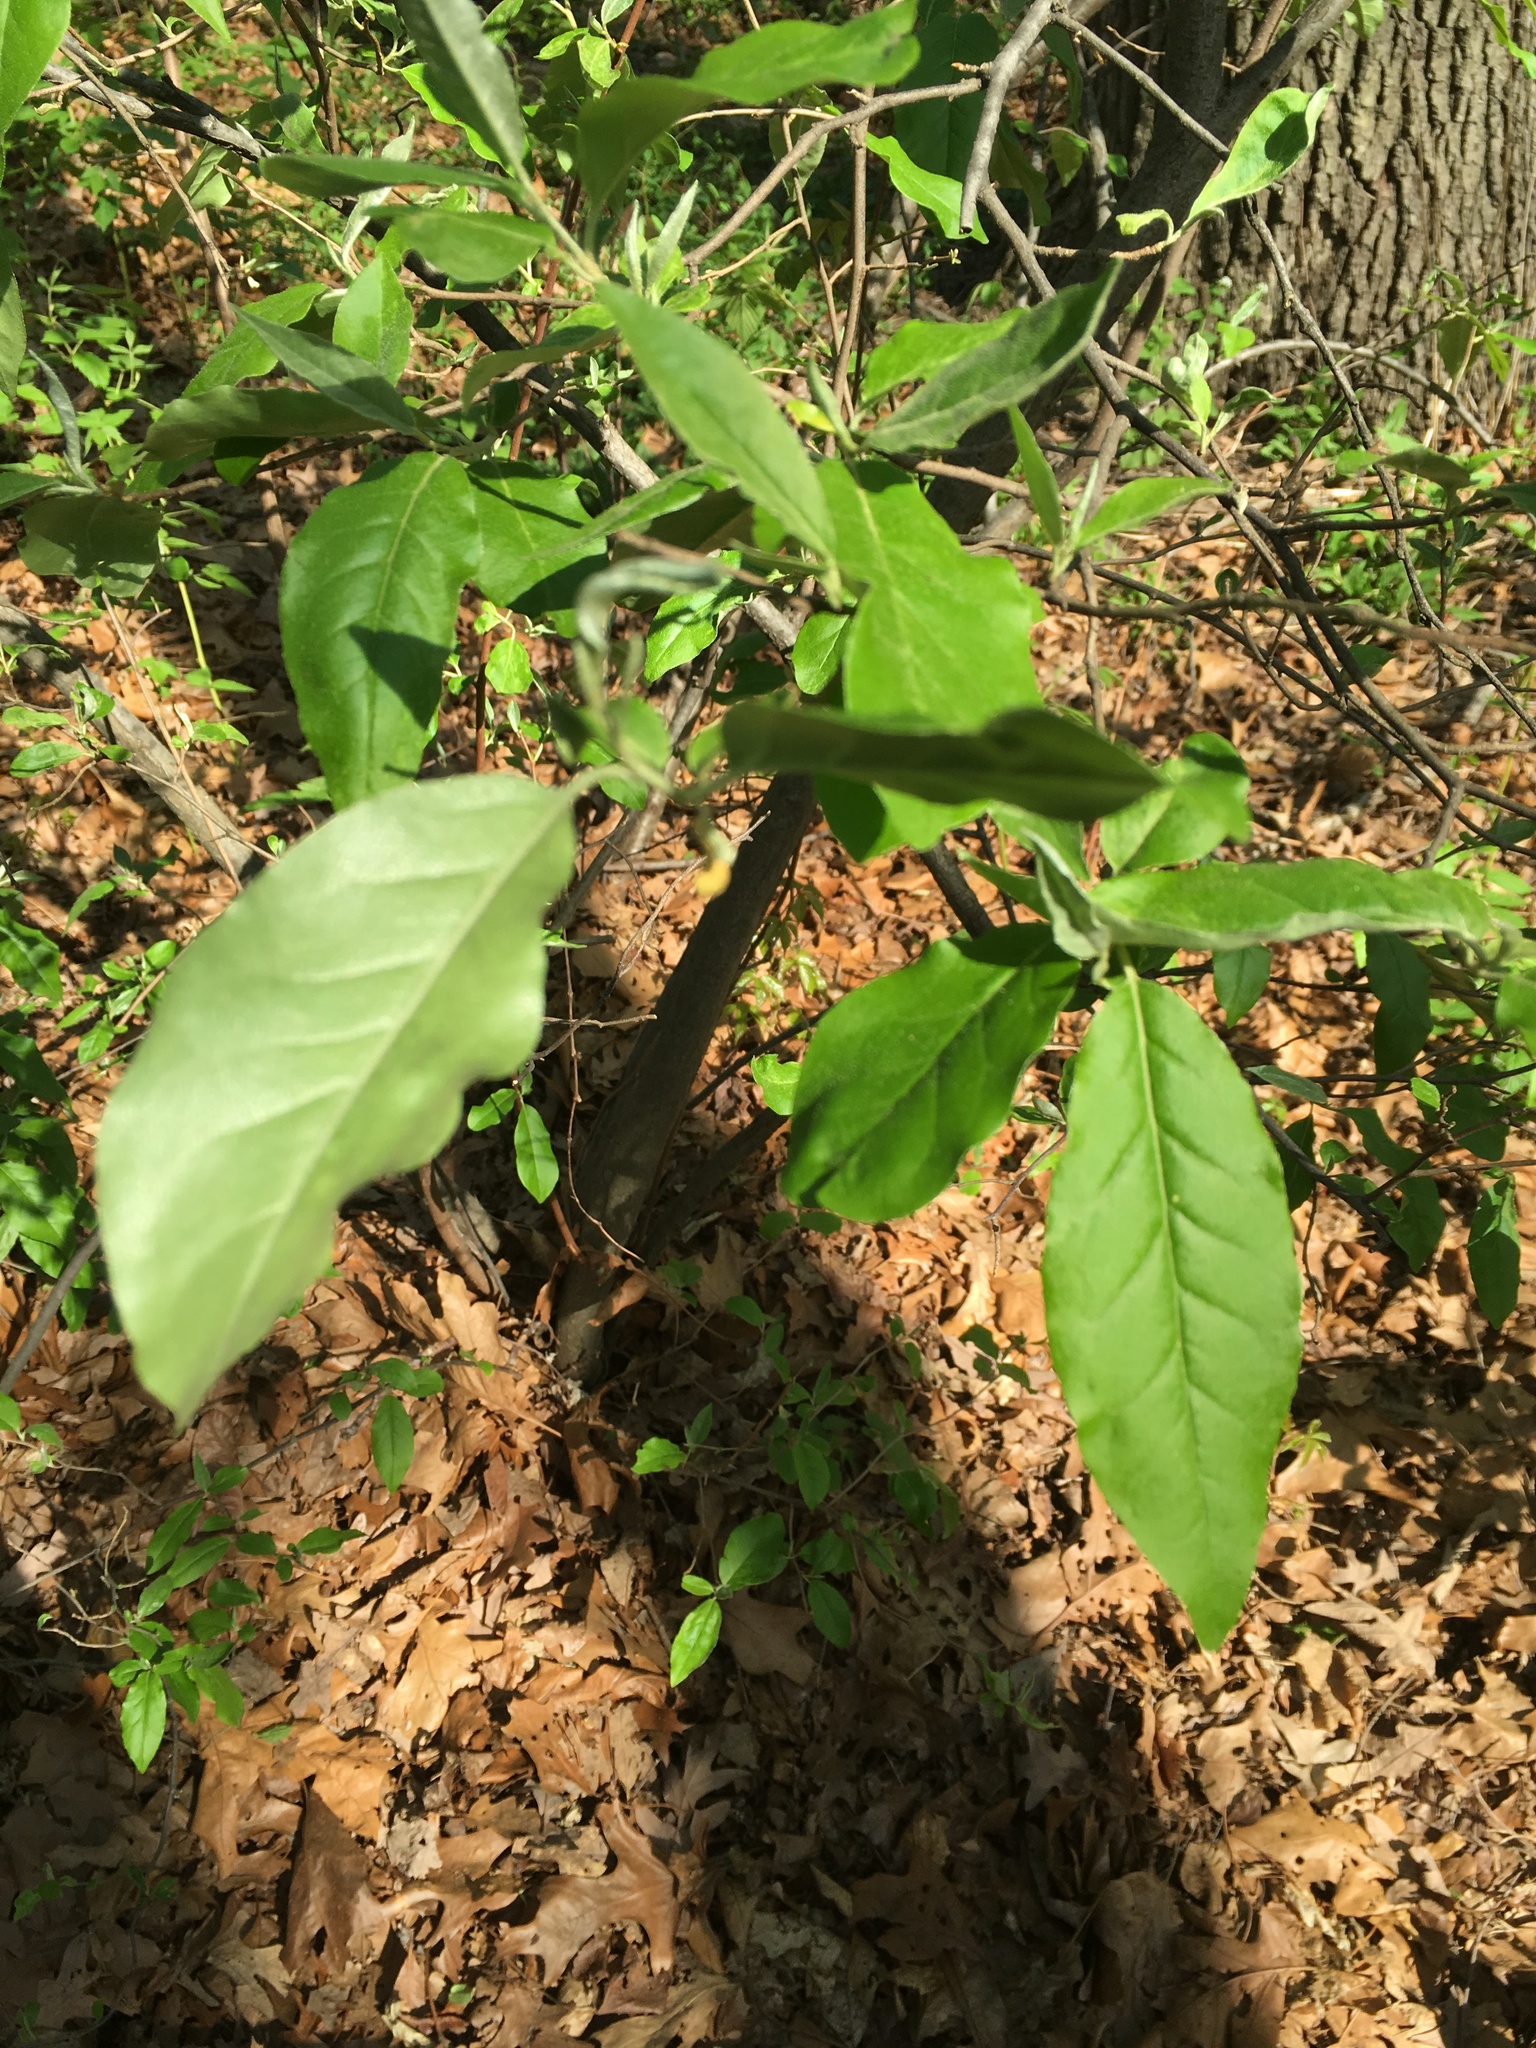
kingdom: Plantae
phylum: Tracheophyta
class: Magnoliopsida
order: Rosales
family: Elaeagnaceae
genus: Elaeagnus
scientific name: Elaeagnus umbellata
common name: Autumn olive
